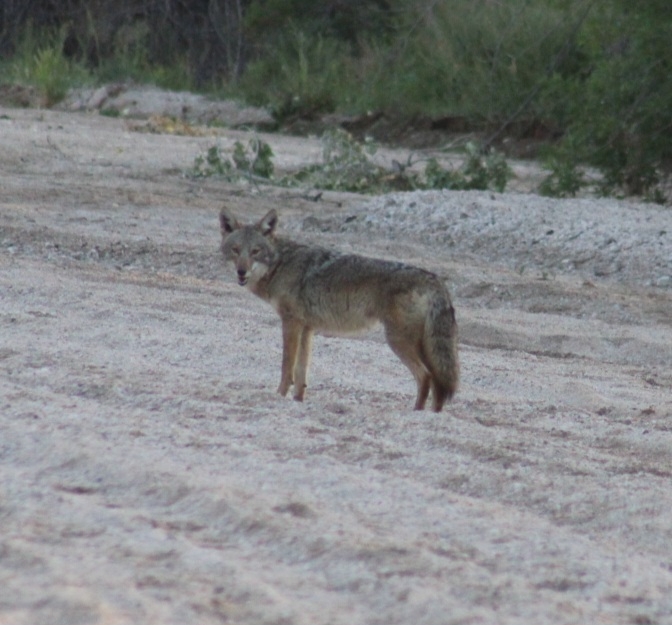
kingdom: Animalia
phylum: Chordata
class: Mammalia
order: Carnivora
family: Canidae
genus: Canis
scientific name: Canis latrans
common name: Coyote
